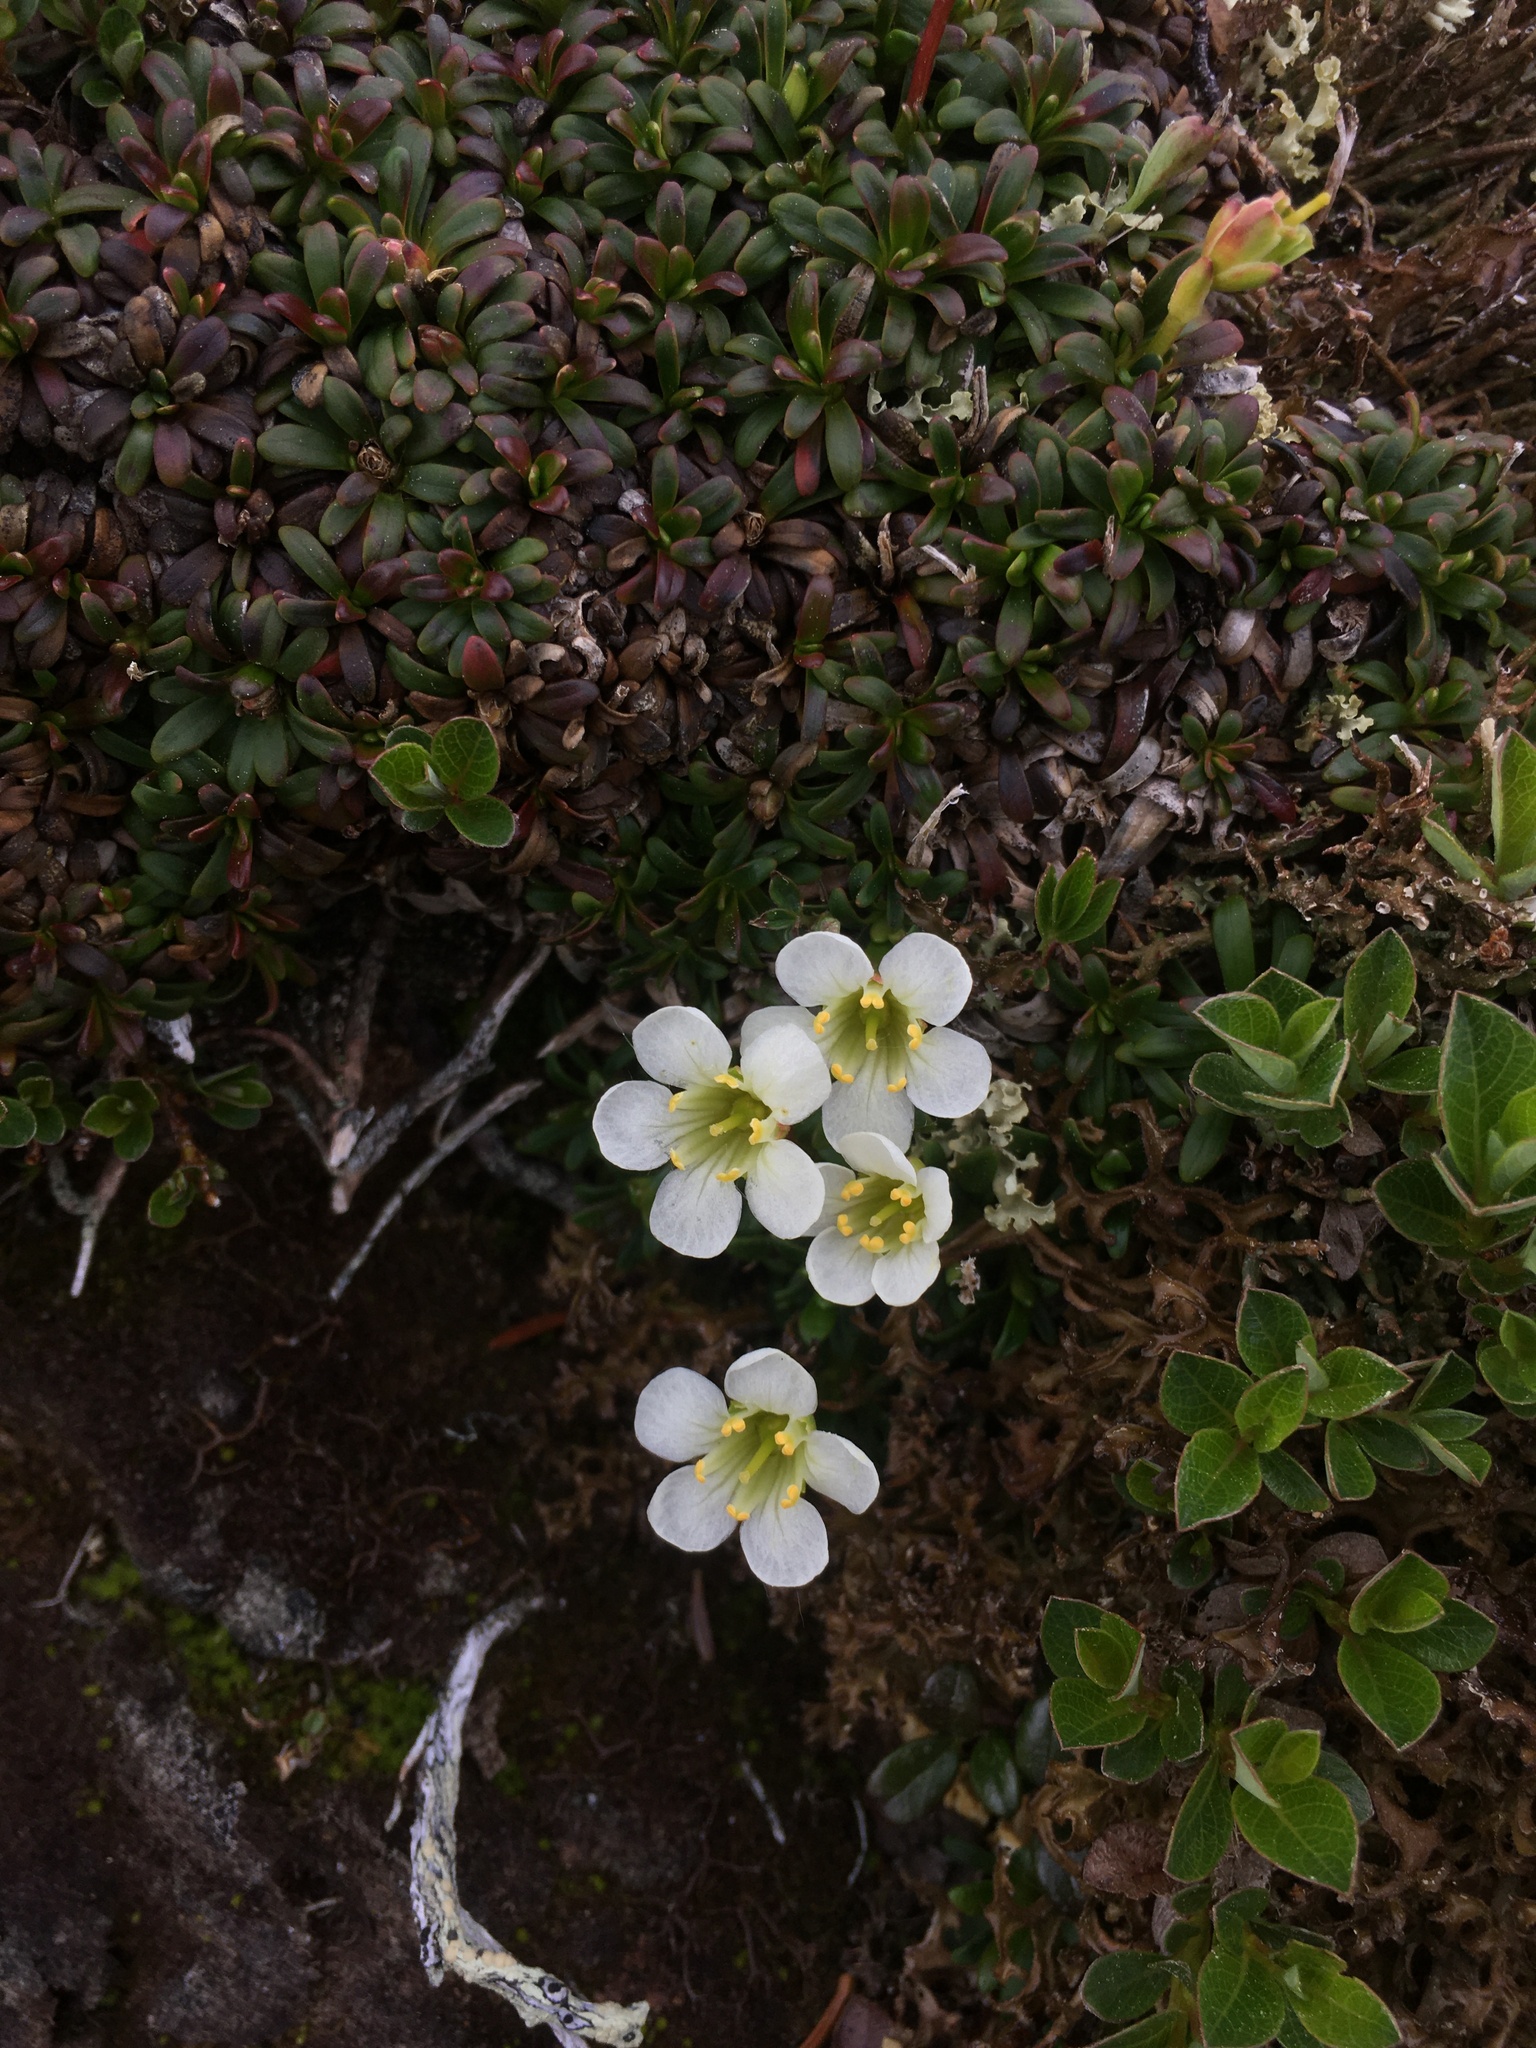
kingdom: Plantae
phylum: Tracheophyta
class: Magnoliopsida
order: Ericales
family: Diapensiaceae
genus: Diapensia
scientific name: Diapensia lapponica
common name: Diapensia
